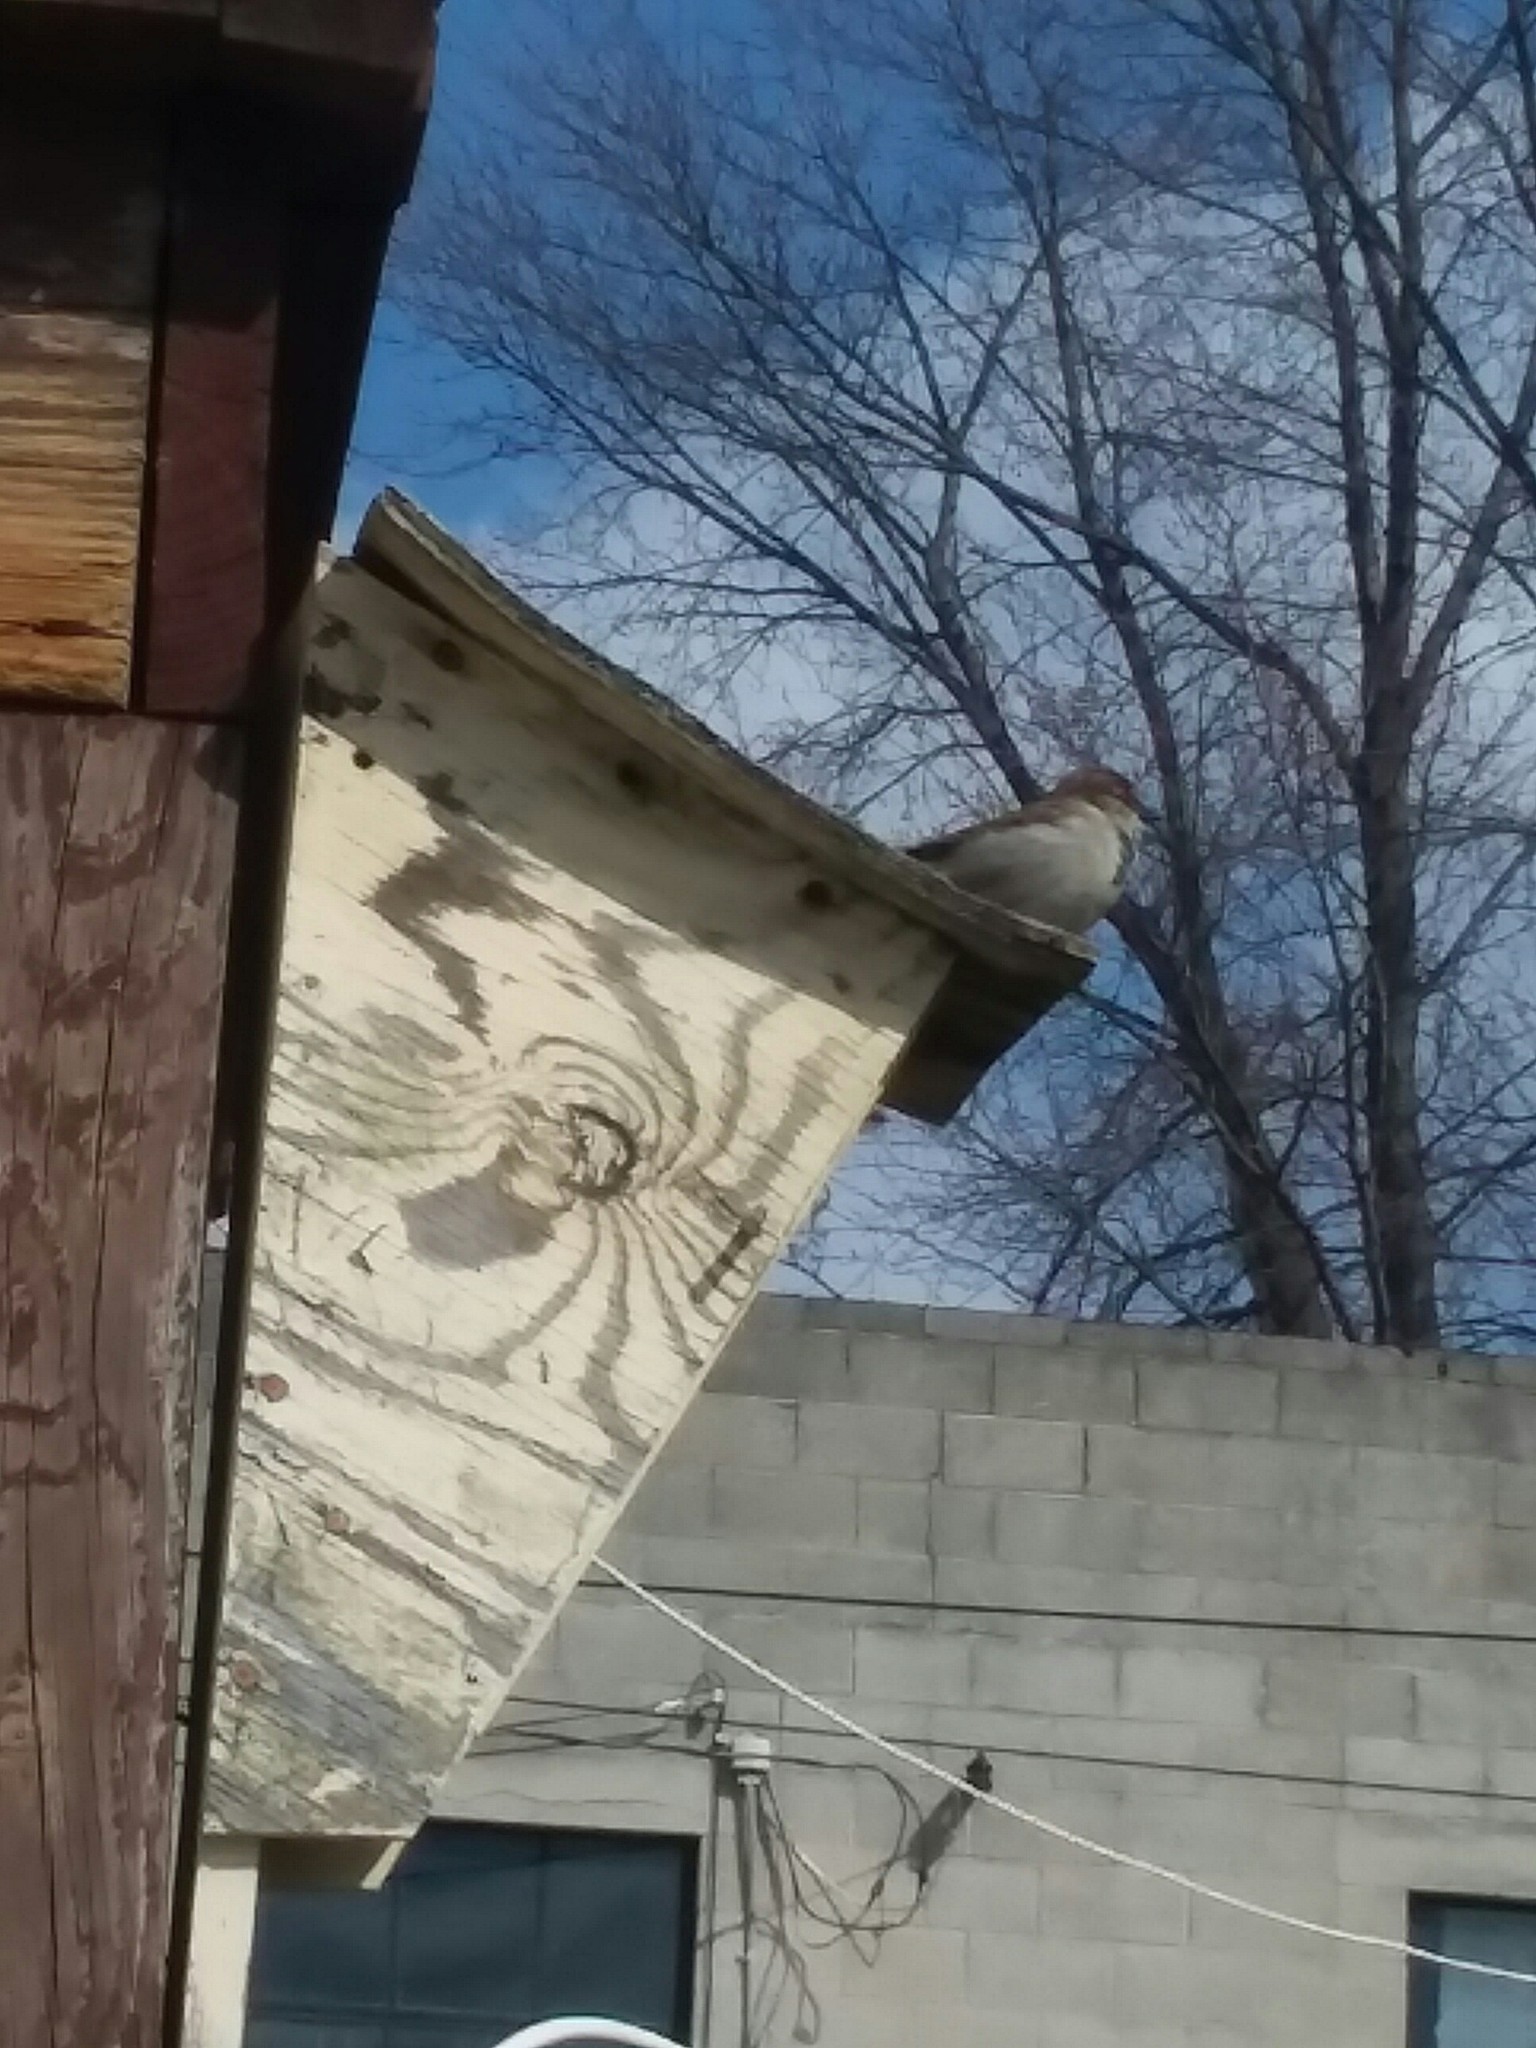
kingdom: Animalia
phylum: Chordata
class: Aves
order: Passeriformes
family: Passeridae
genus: Passer
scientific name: Passer domesticus
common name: House sparrow
